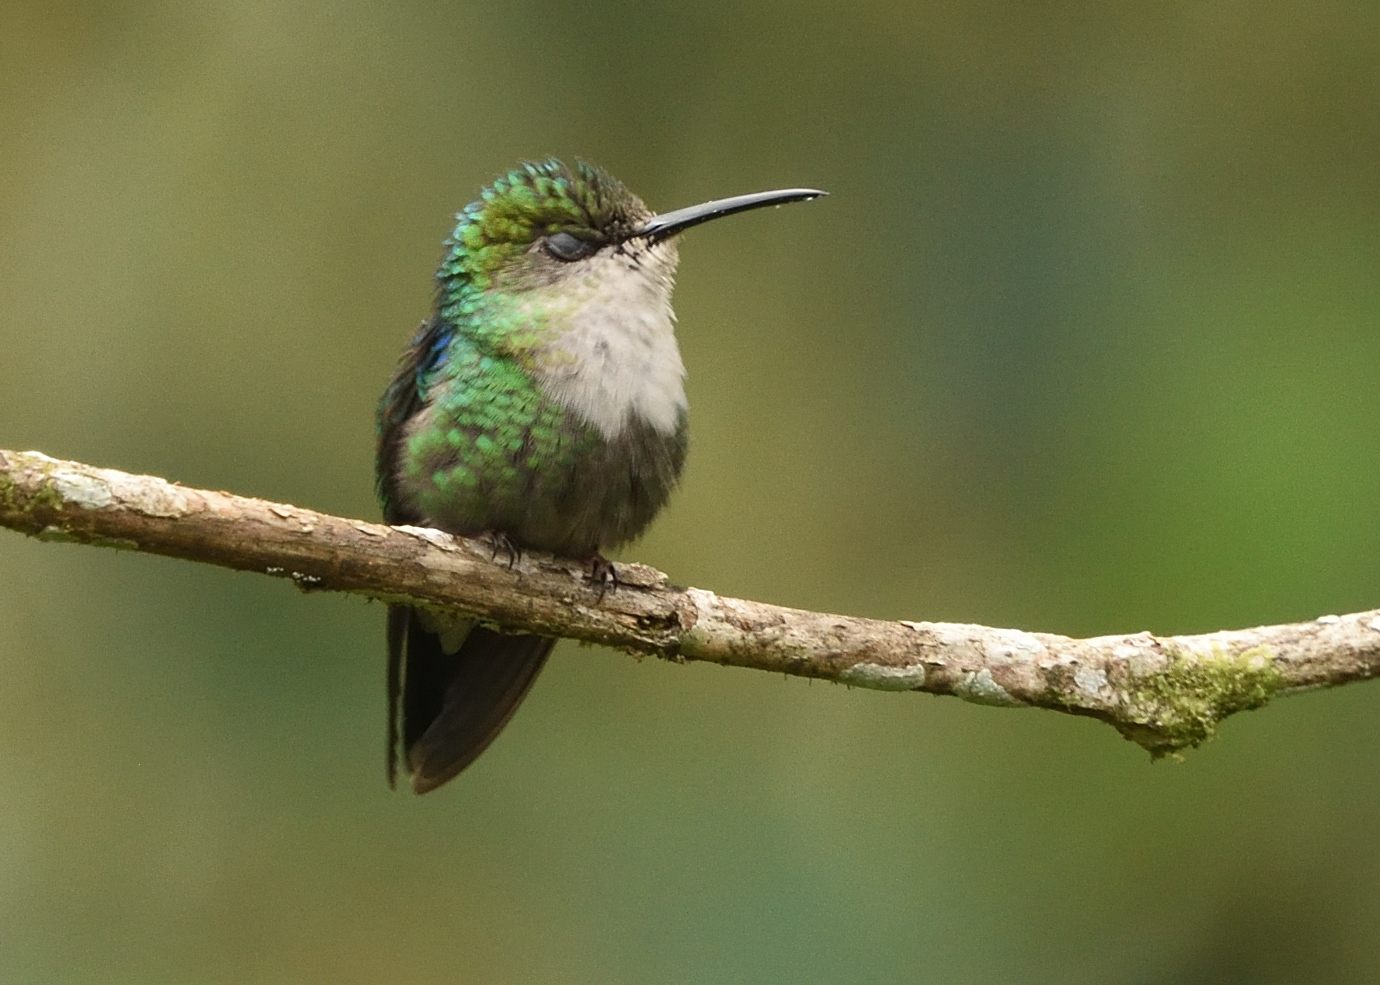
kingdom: Animalia
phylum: Chordata
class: Aves
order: Apodiformes
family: Trochilidae
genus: Thalurania
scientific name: Thalurania colombica
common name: Crowned woodnymph
